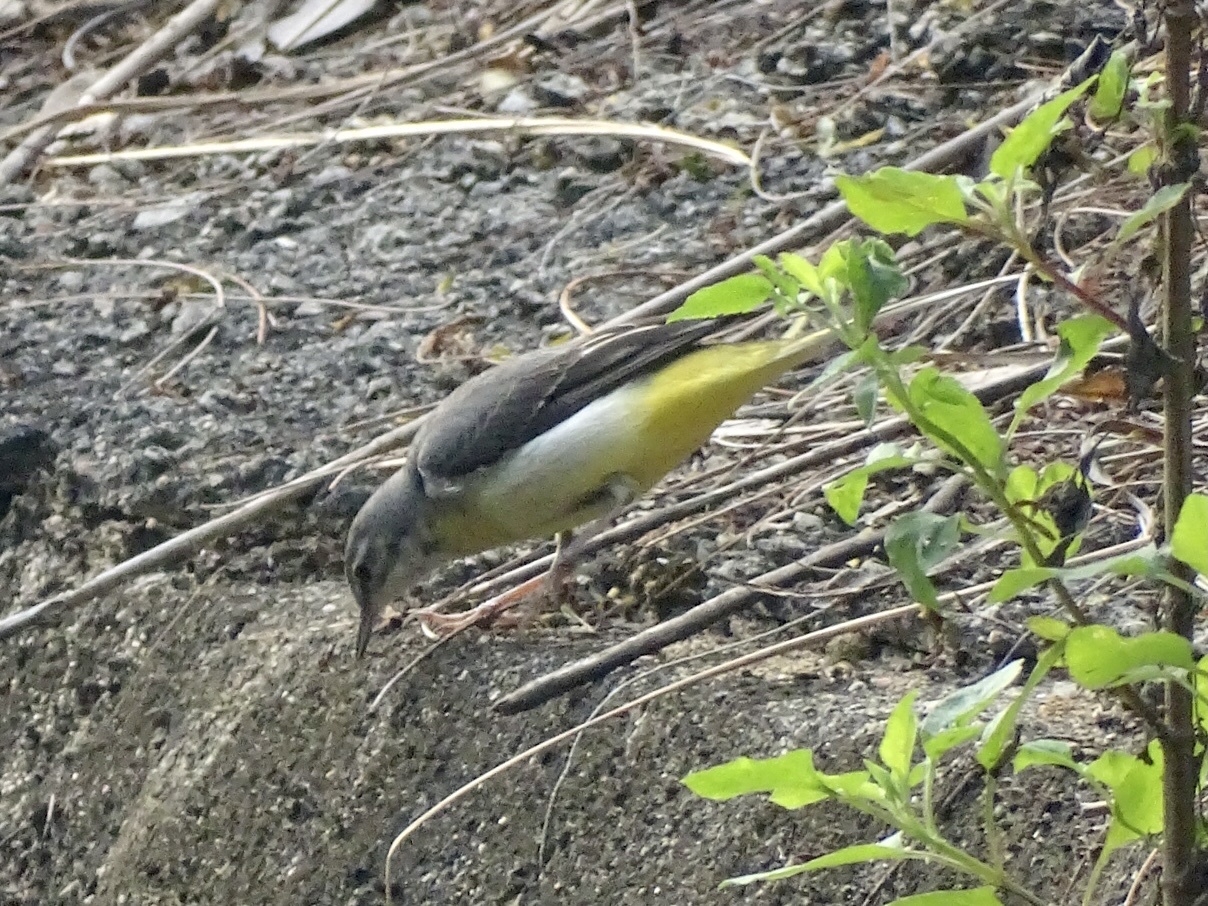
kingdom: Animalia
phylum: Chordata
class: Aves
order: Passeriformes
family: Motacillidae
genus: Motacilla
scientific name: Motacilla cinerea
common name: Grey wagtail
